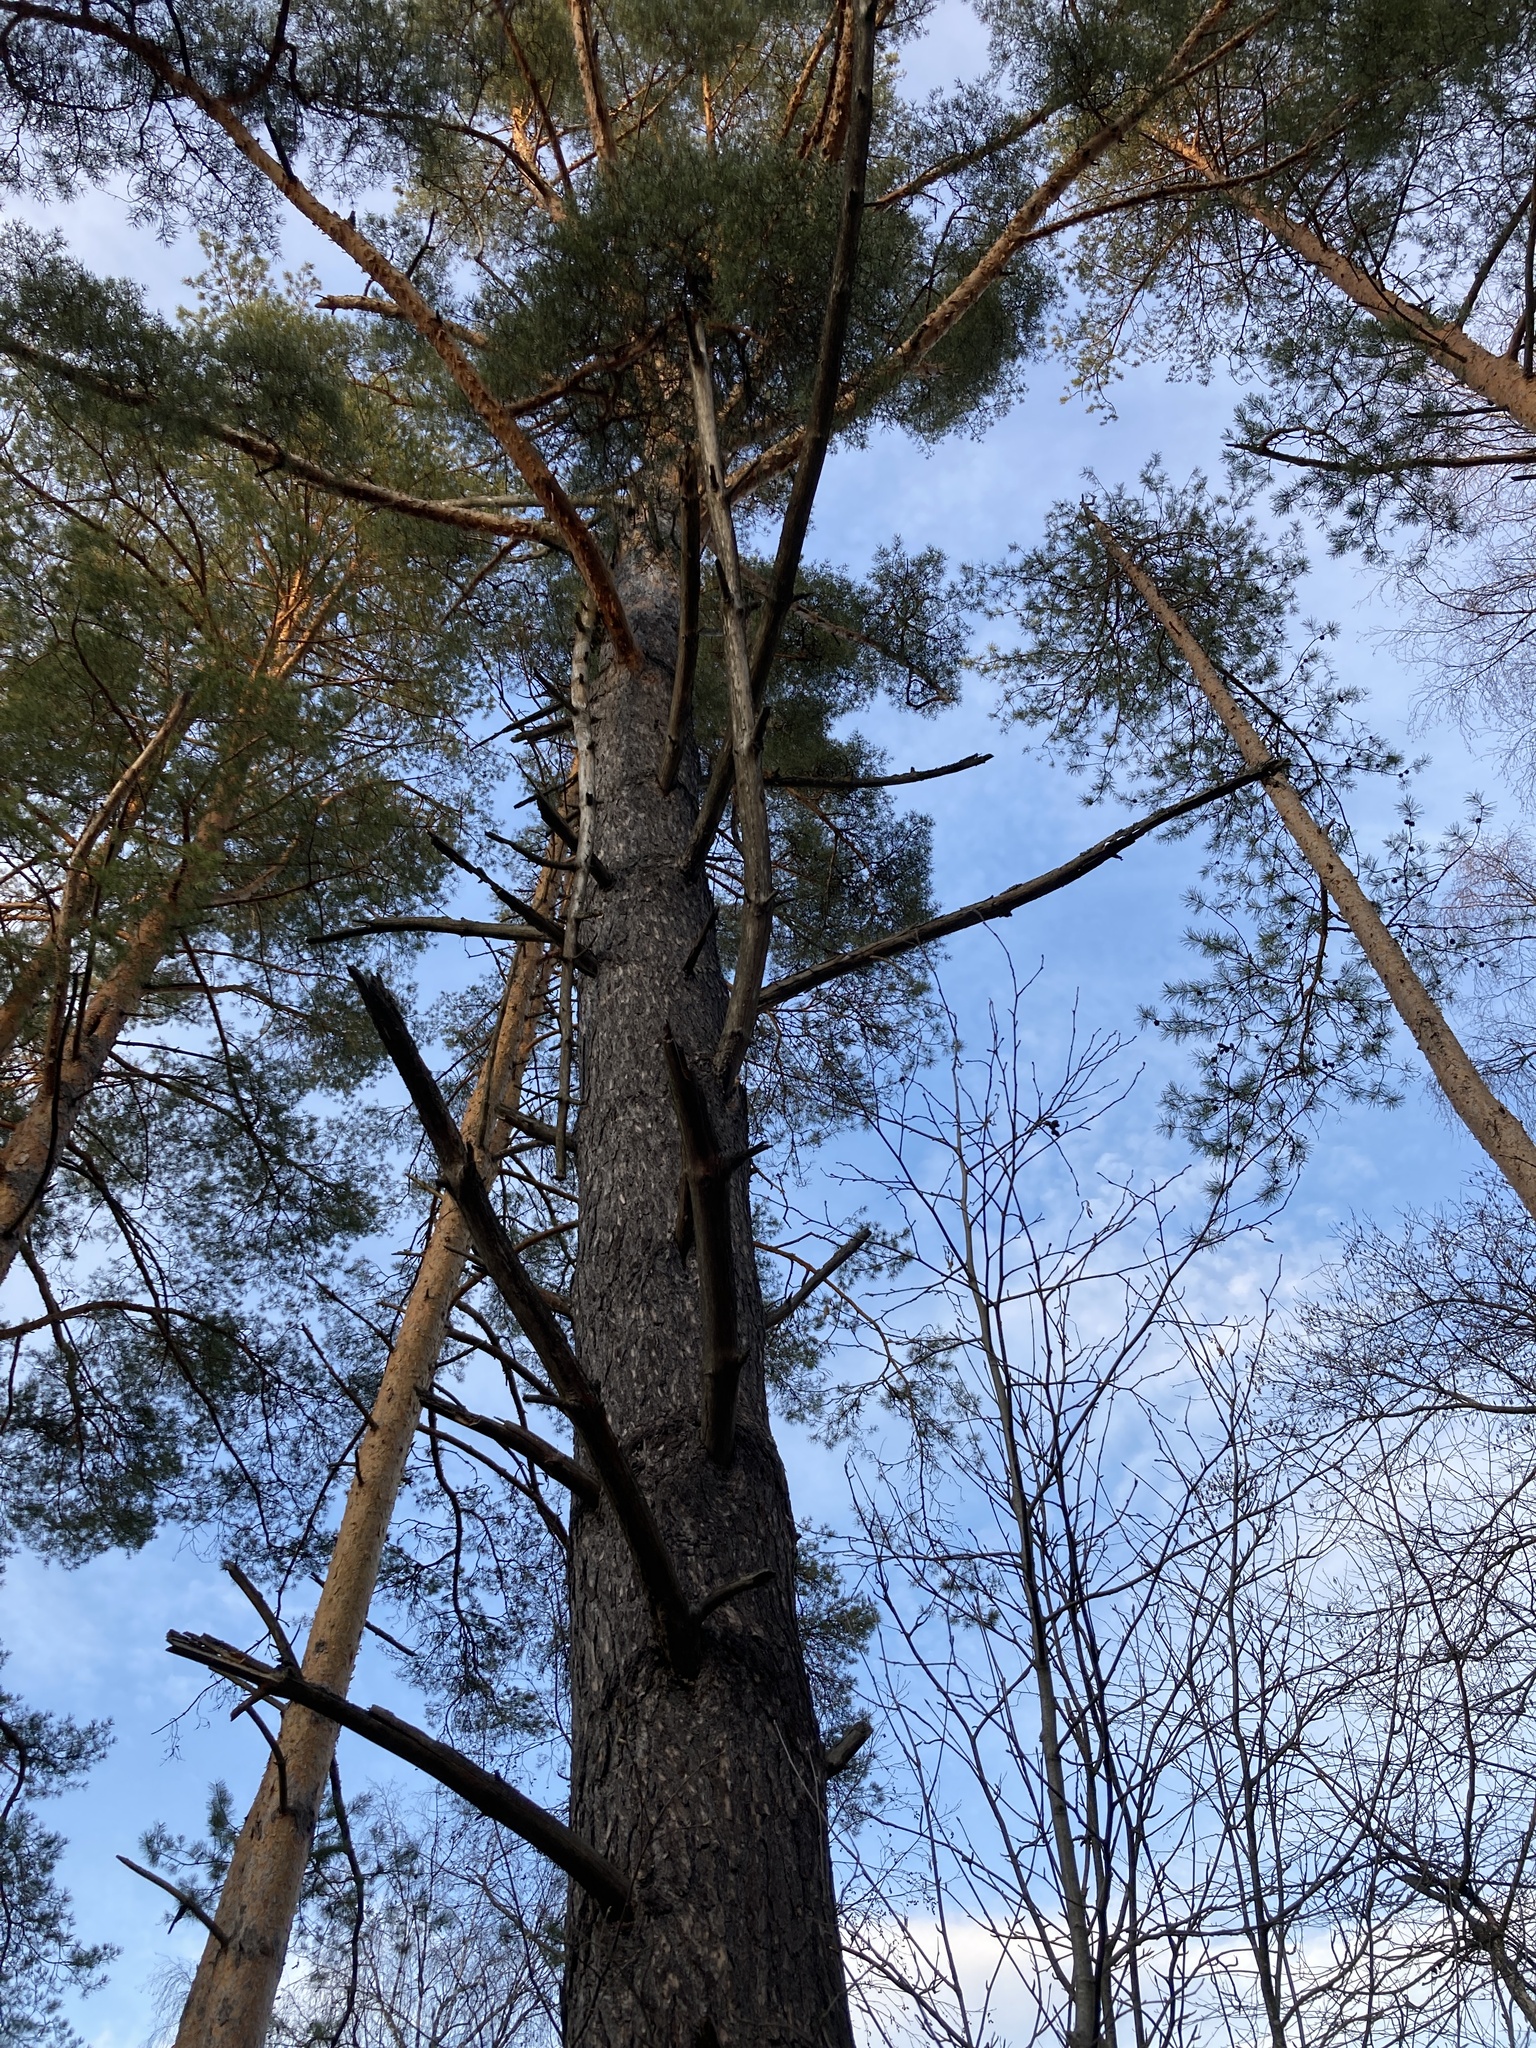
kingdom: Plantae
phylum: Tracheophyta
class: Pinopsida
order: Pinales
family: Pinaceae
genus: Pinus
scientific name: Pinus sylvestris
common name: Scots pine
